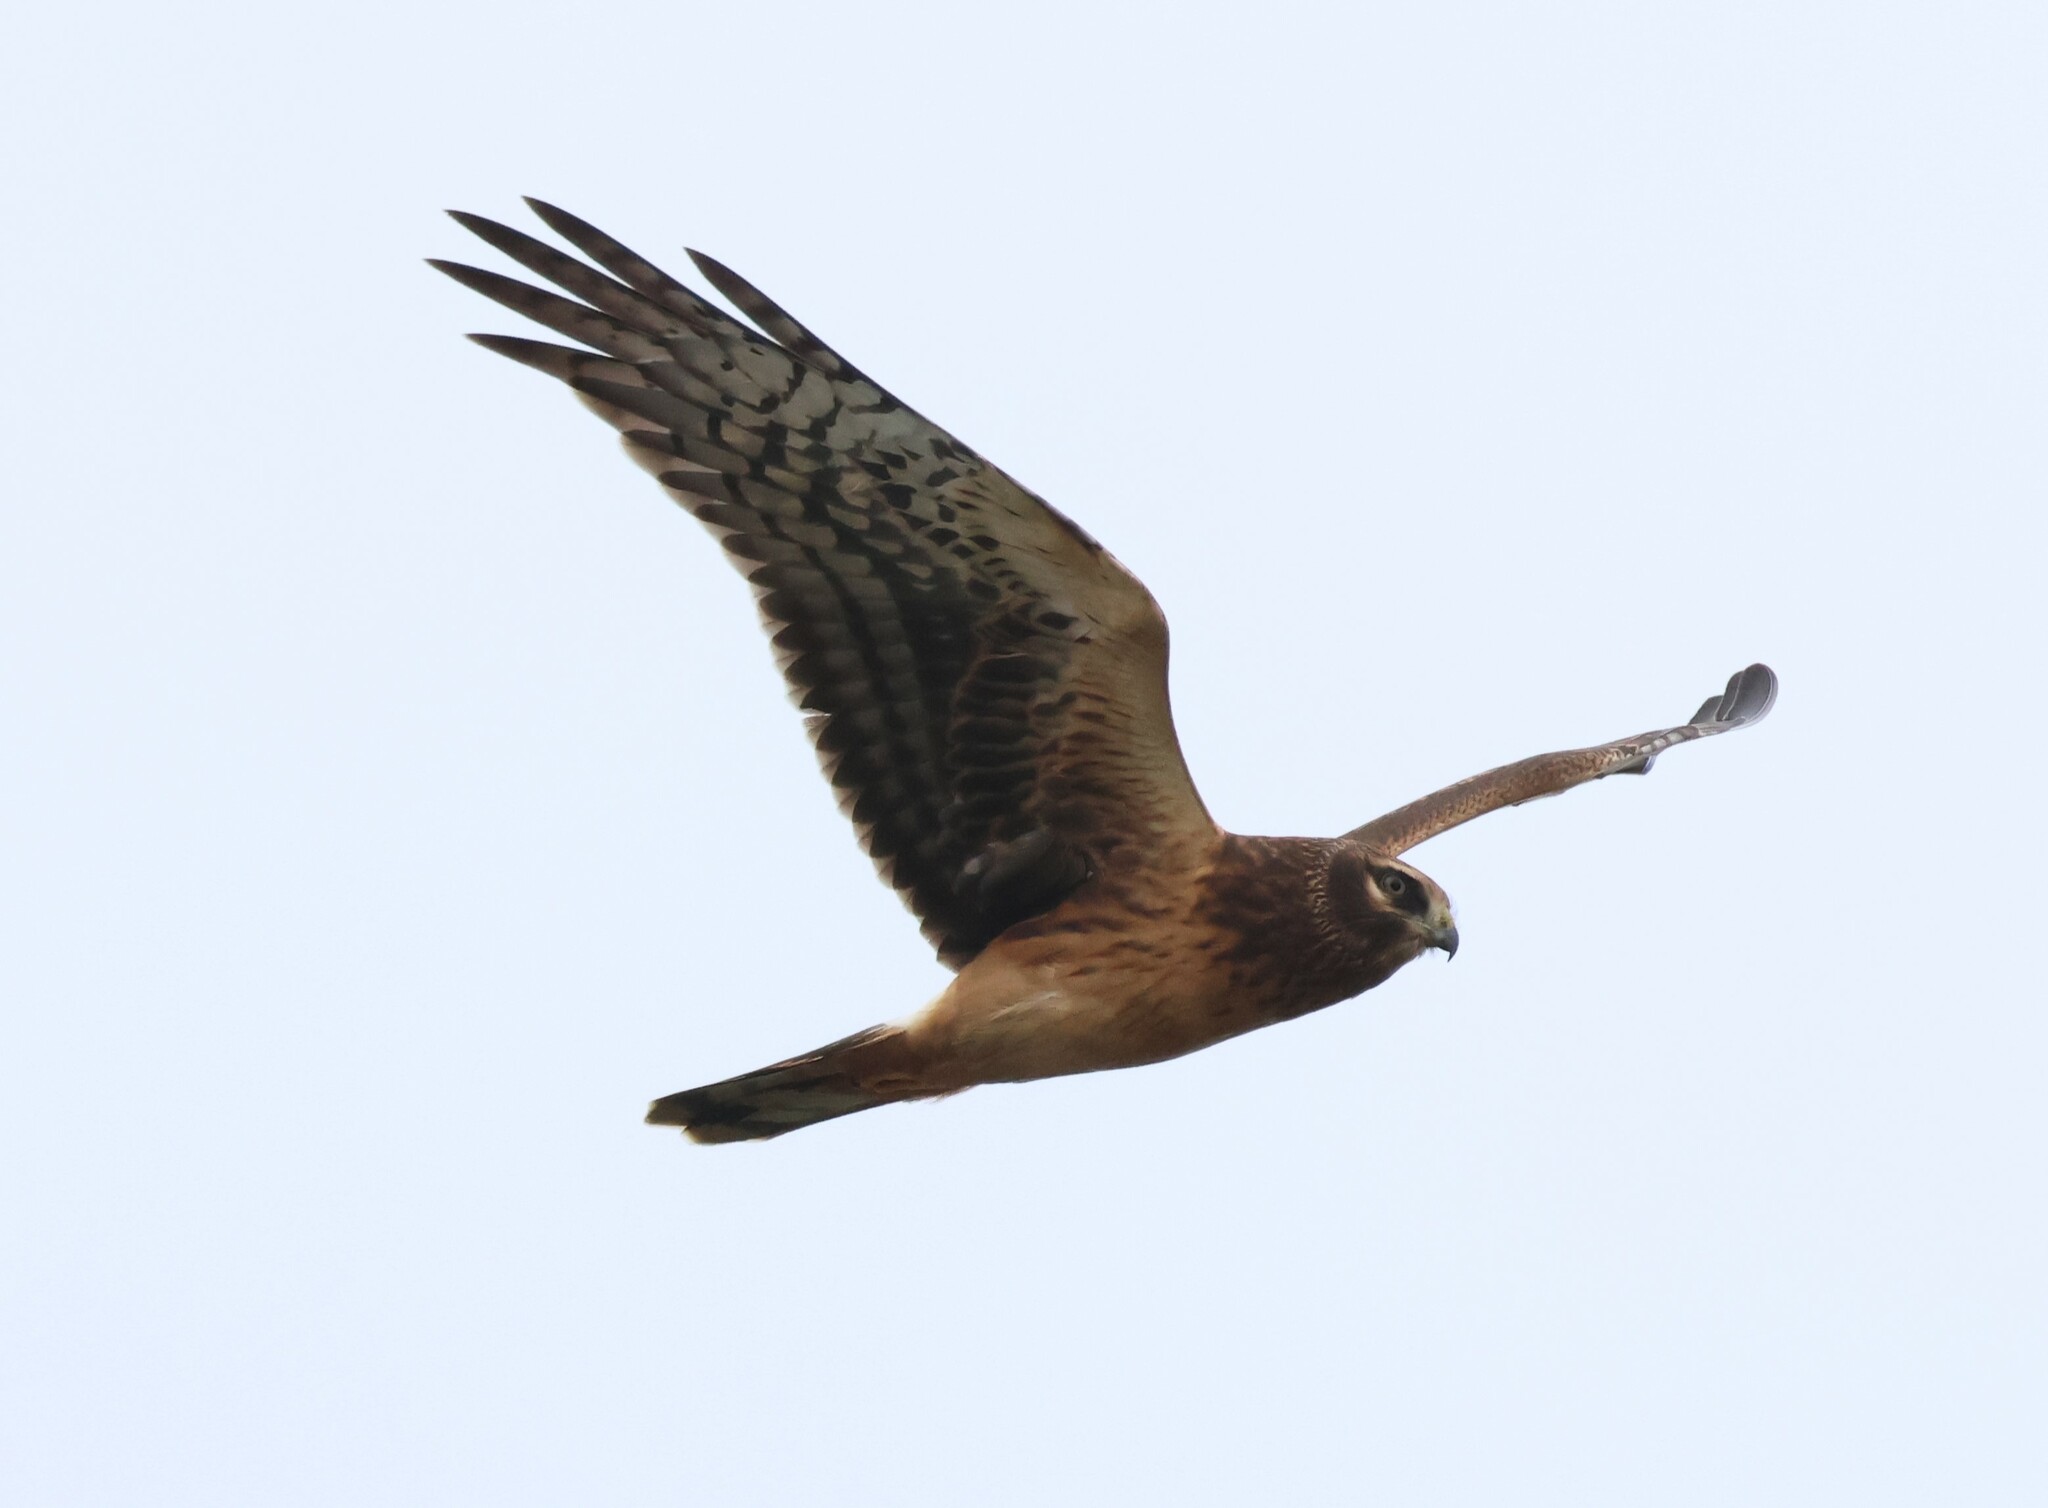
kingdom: Animalia
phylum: Chordata
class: Aves
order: Accipitriformes
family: Accipitridae
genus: Circus
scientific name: Circus cyaneus
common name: Hen harrier
